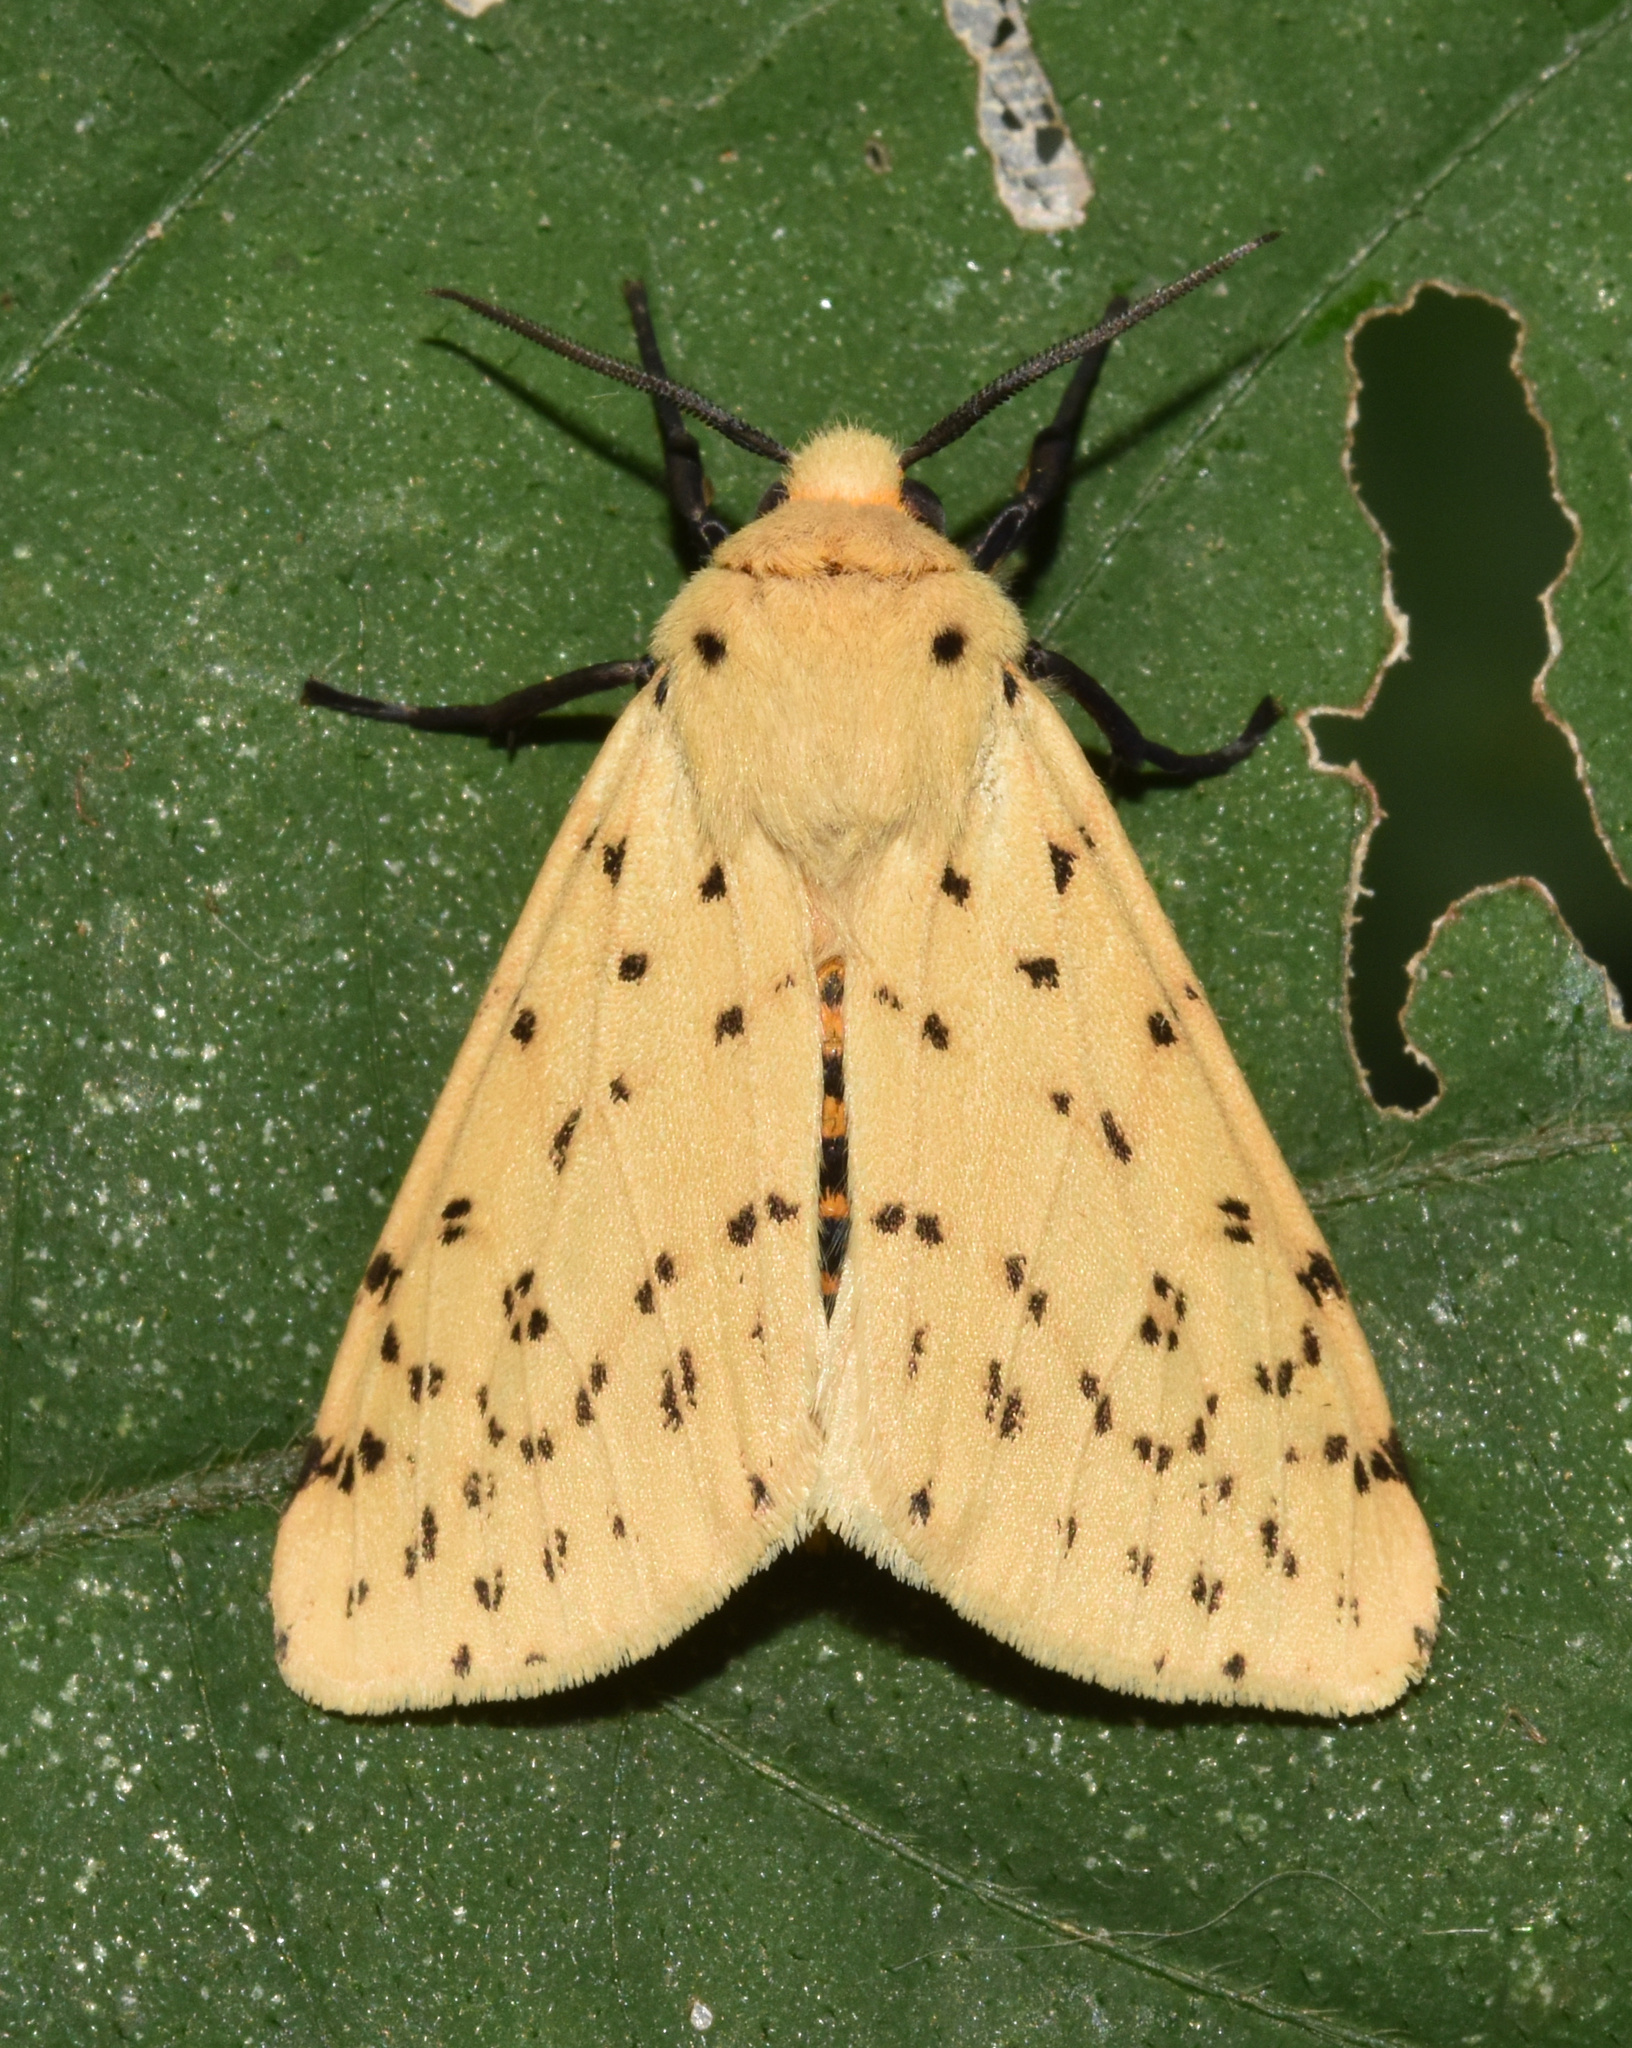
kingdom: Animalia
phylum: Arthropoda
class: Insecta
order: Lepidoptera
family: Erebidae
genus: Eyralpenus
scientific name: Eyralpenus testacea
